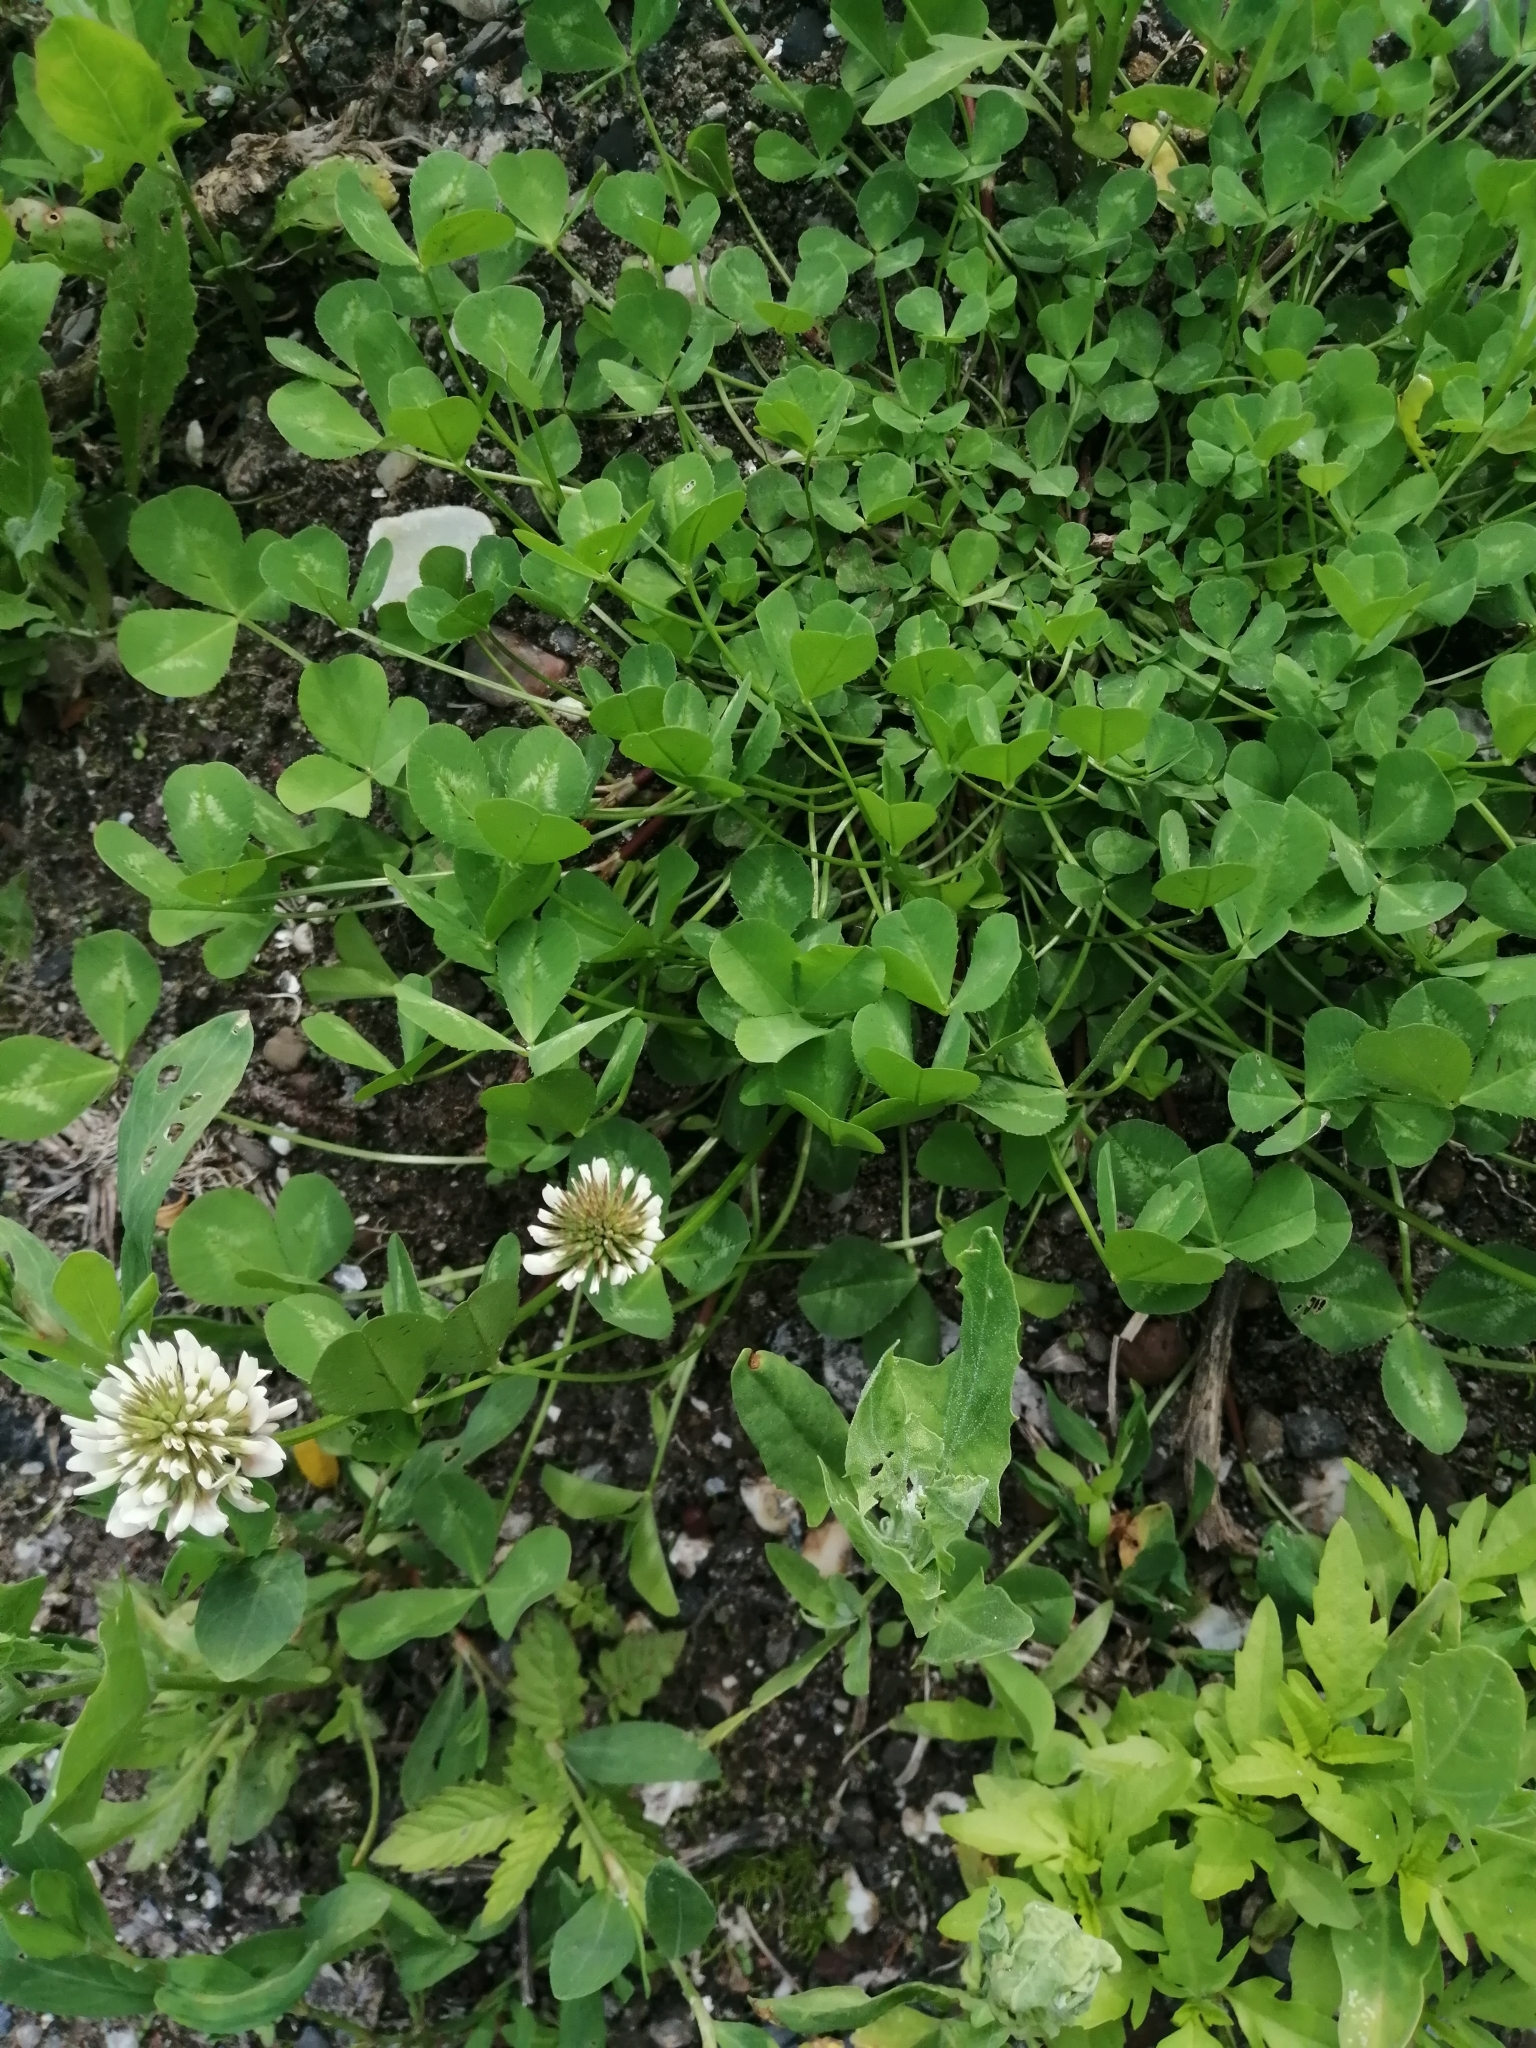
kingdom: Plantae
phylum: Tracheophyta
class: Magnoliopsida
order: Fabales
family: Fabaceae
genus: Trifolium
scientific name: Trifolium repens
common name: White clover
